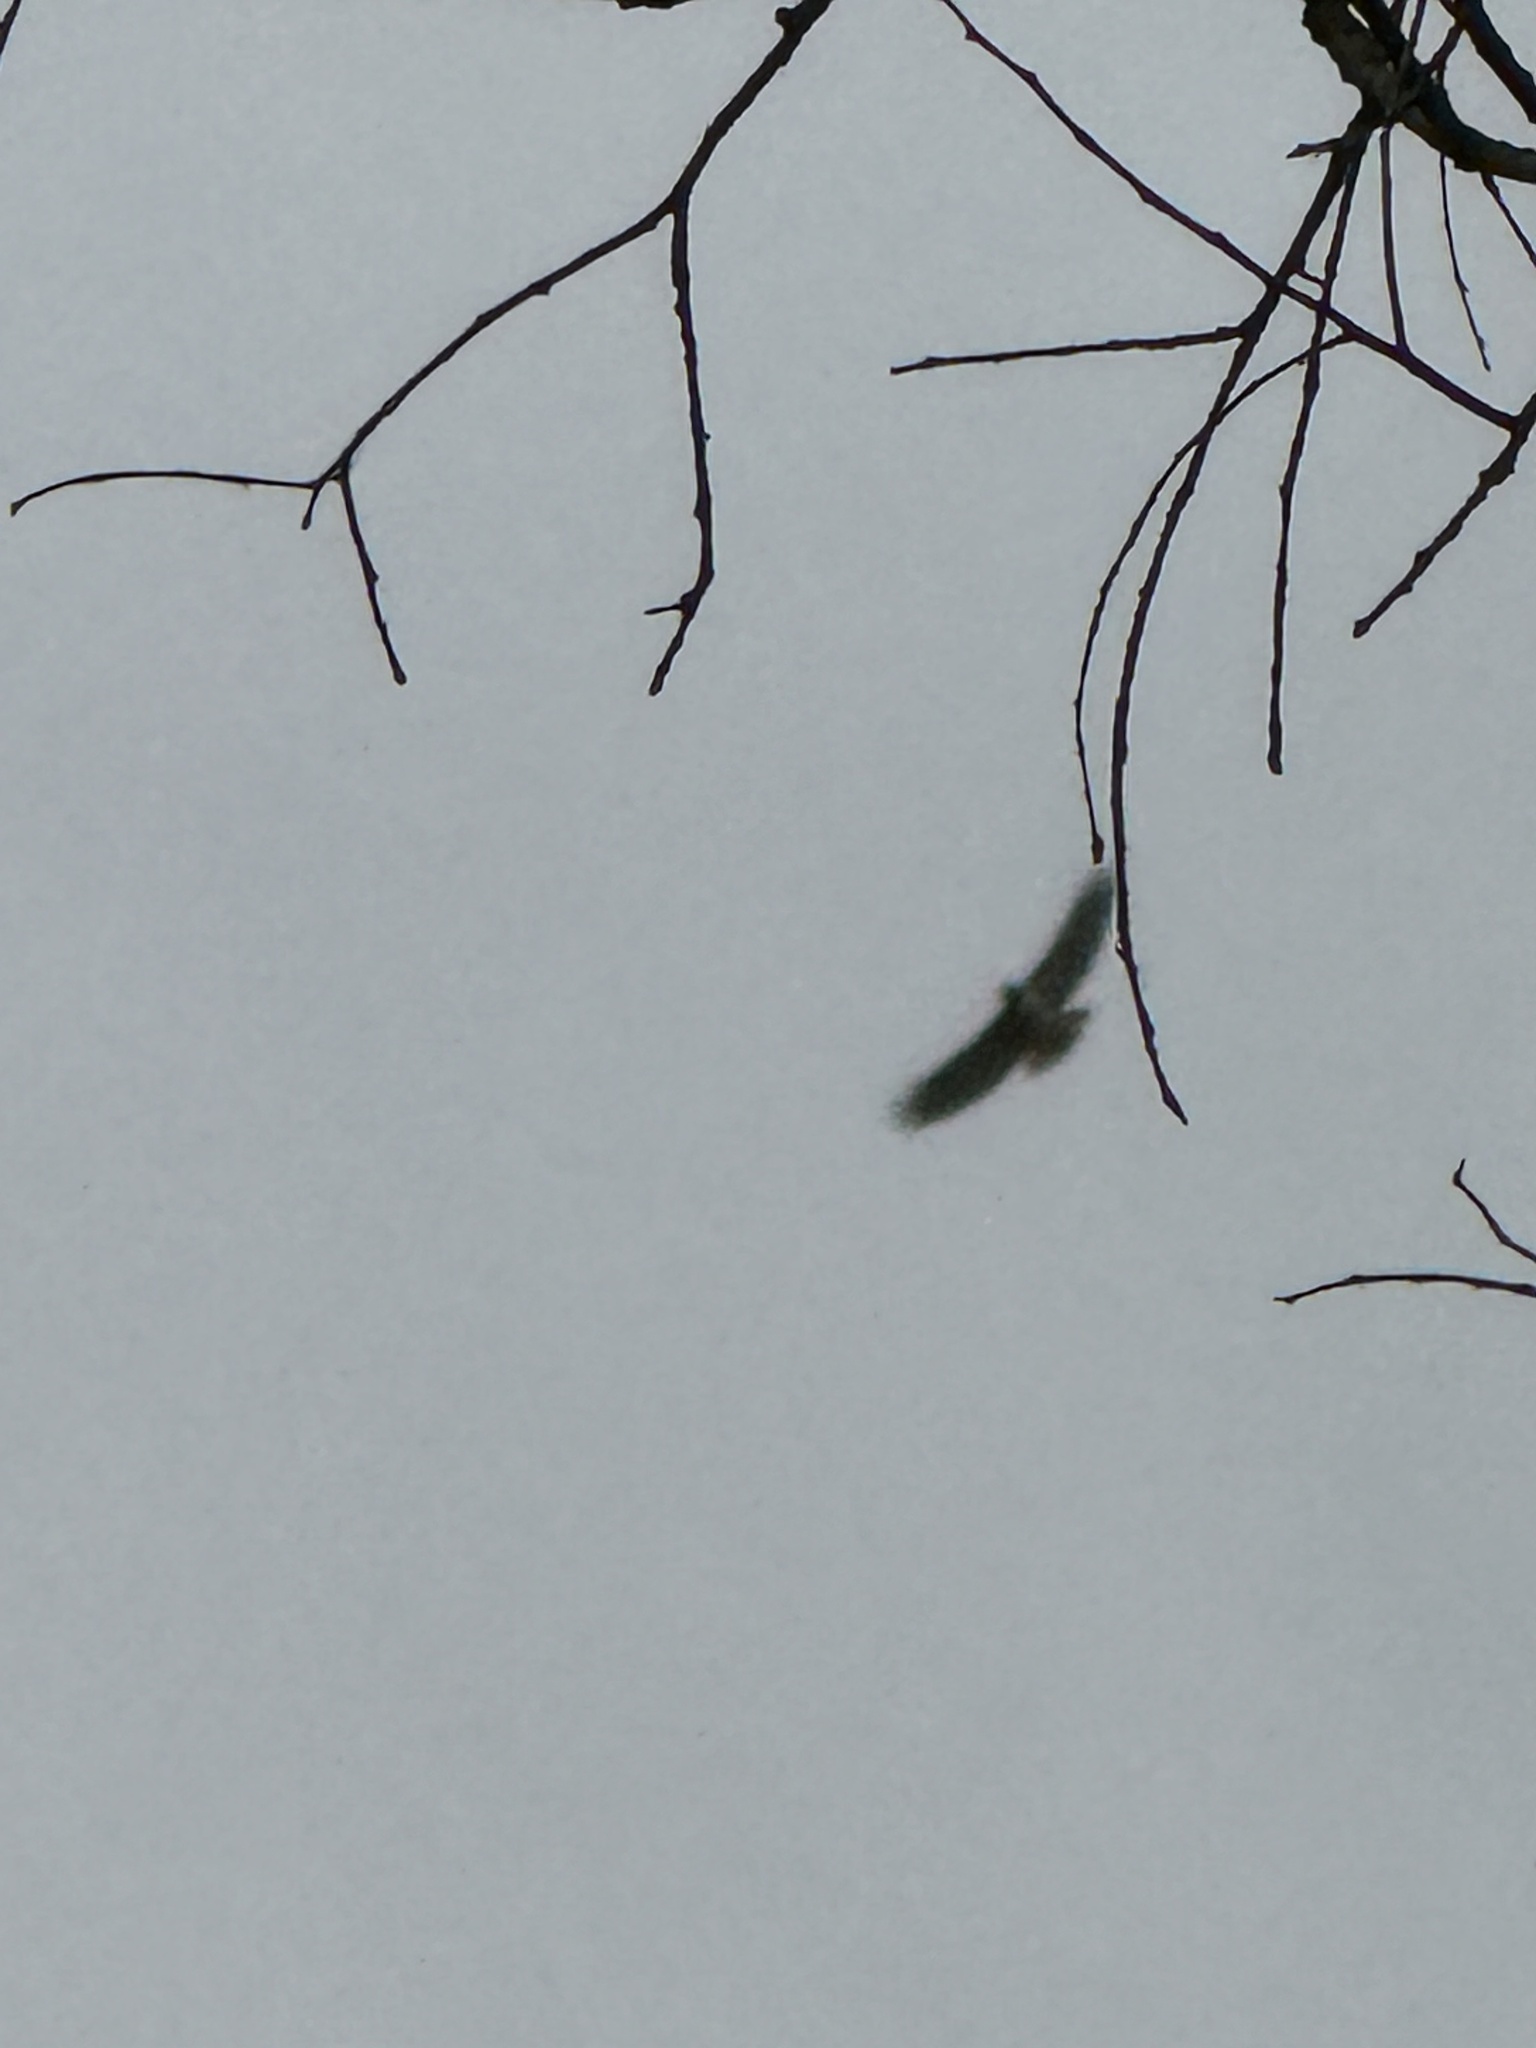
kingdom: Animalia
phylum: Chordata
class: Aves
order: Accipitriformes
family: Accipitridae
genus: Buteo
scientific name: Buteo jamaicensis
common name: Red-tailed hawk
